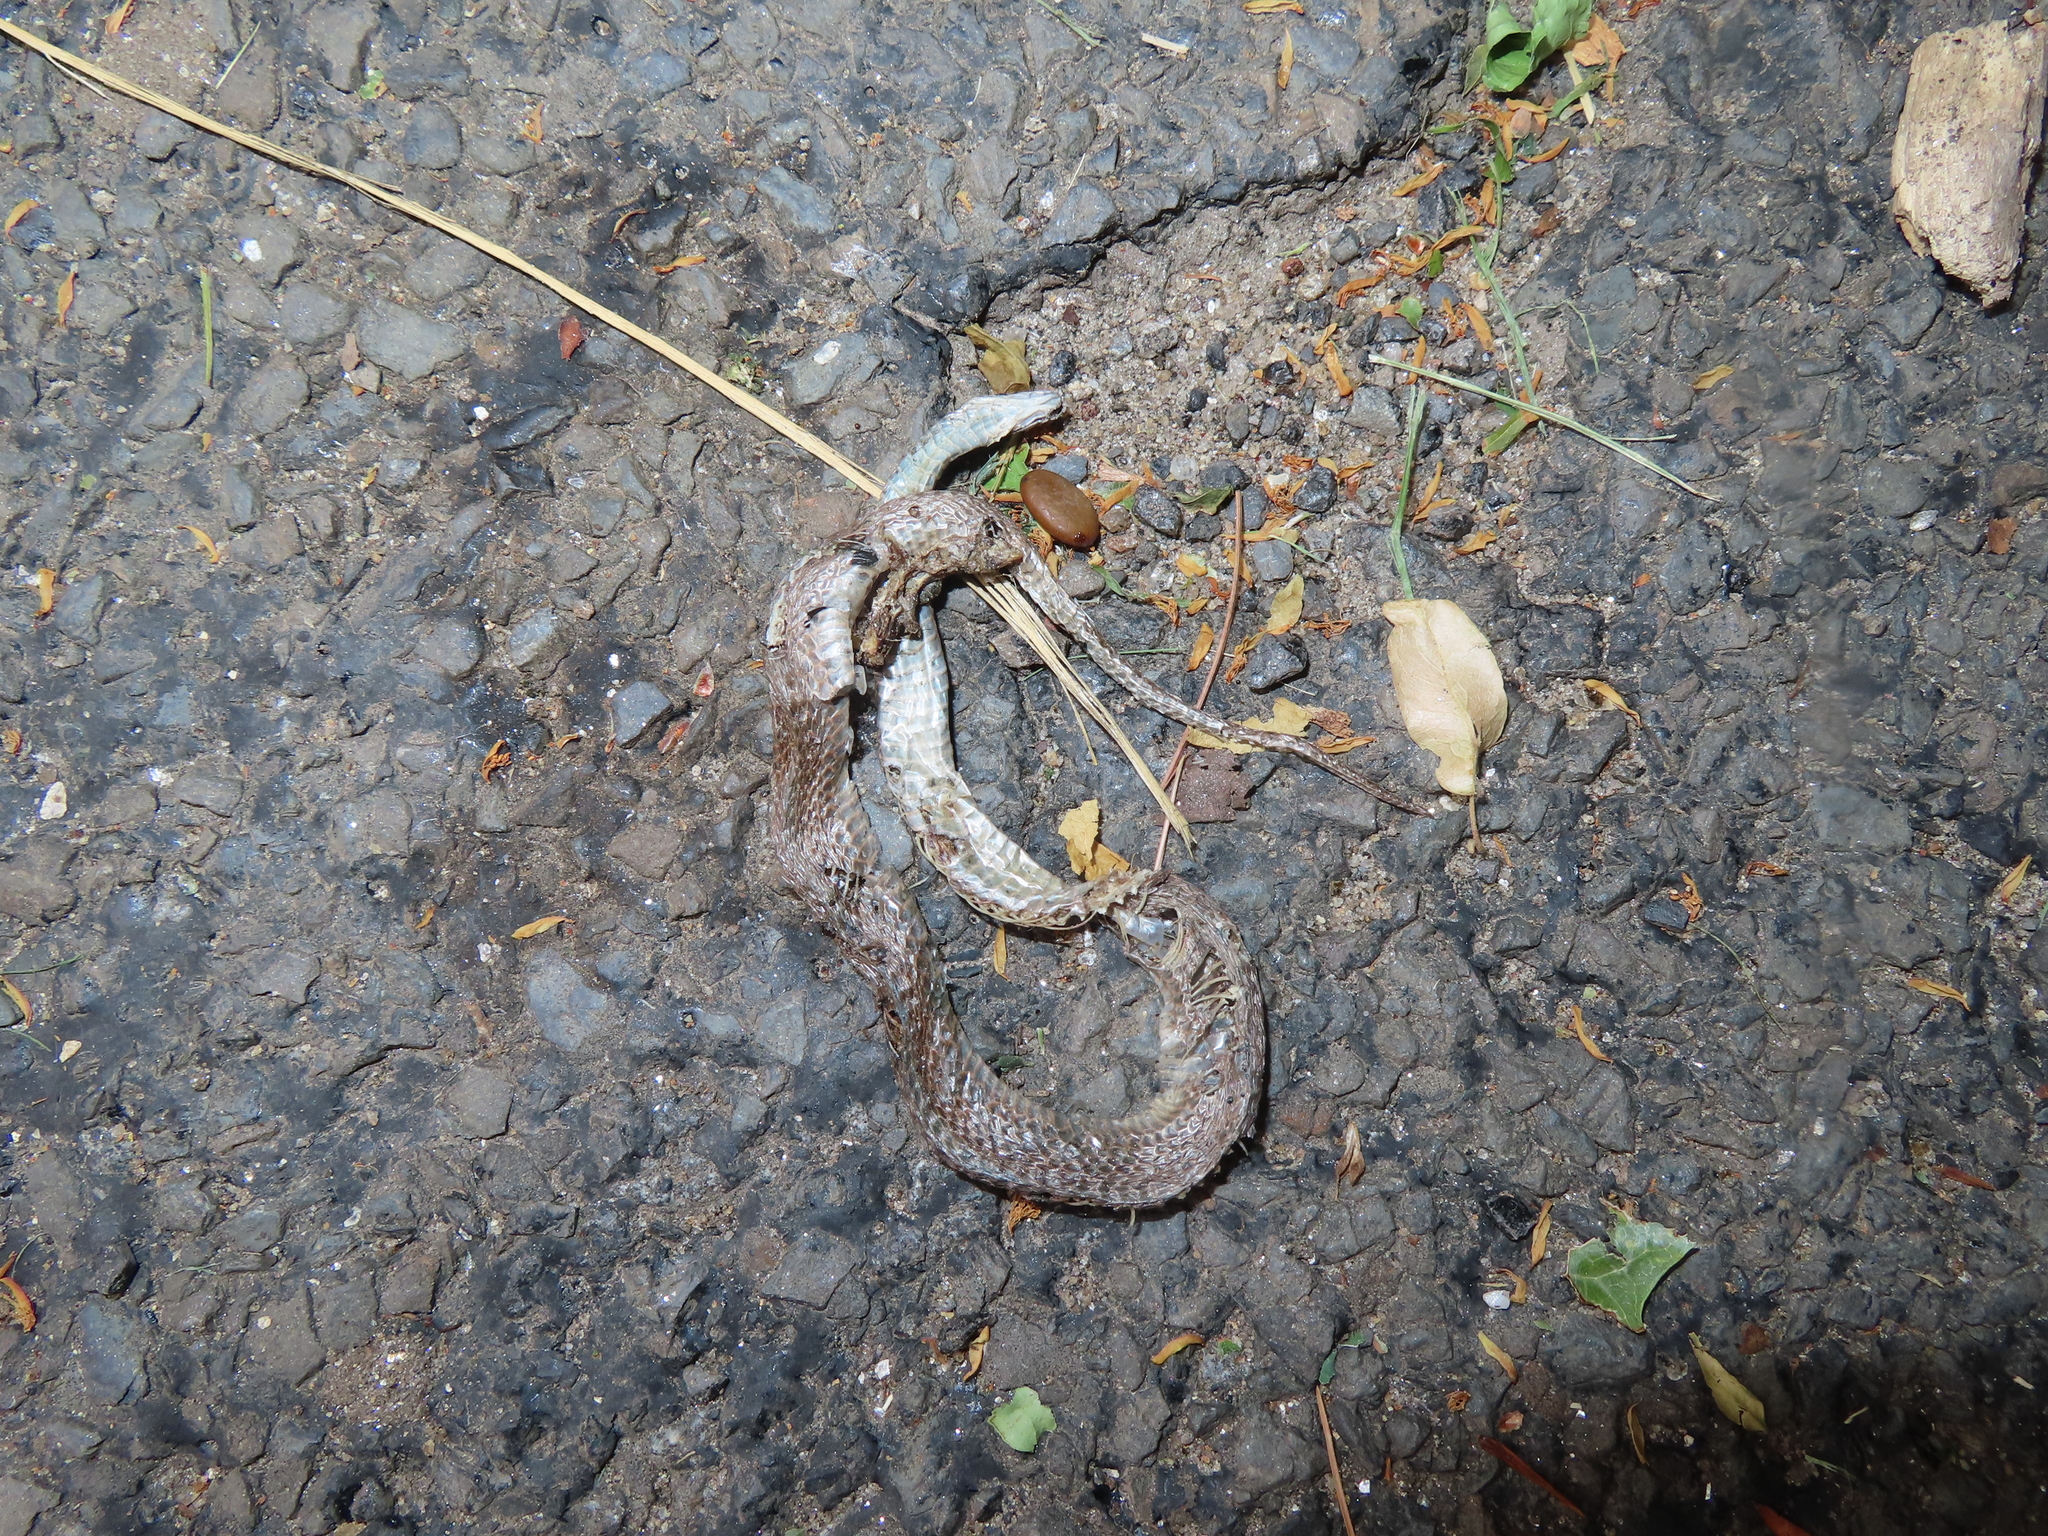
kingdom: Animalia
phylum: Chordata
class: Squamata
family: Colubridae
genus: Storeria
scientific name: Storeria dekayi
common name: (dekay’s) brown snake
